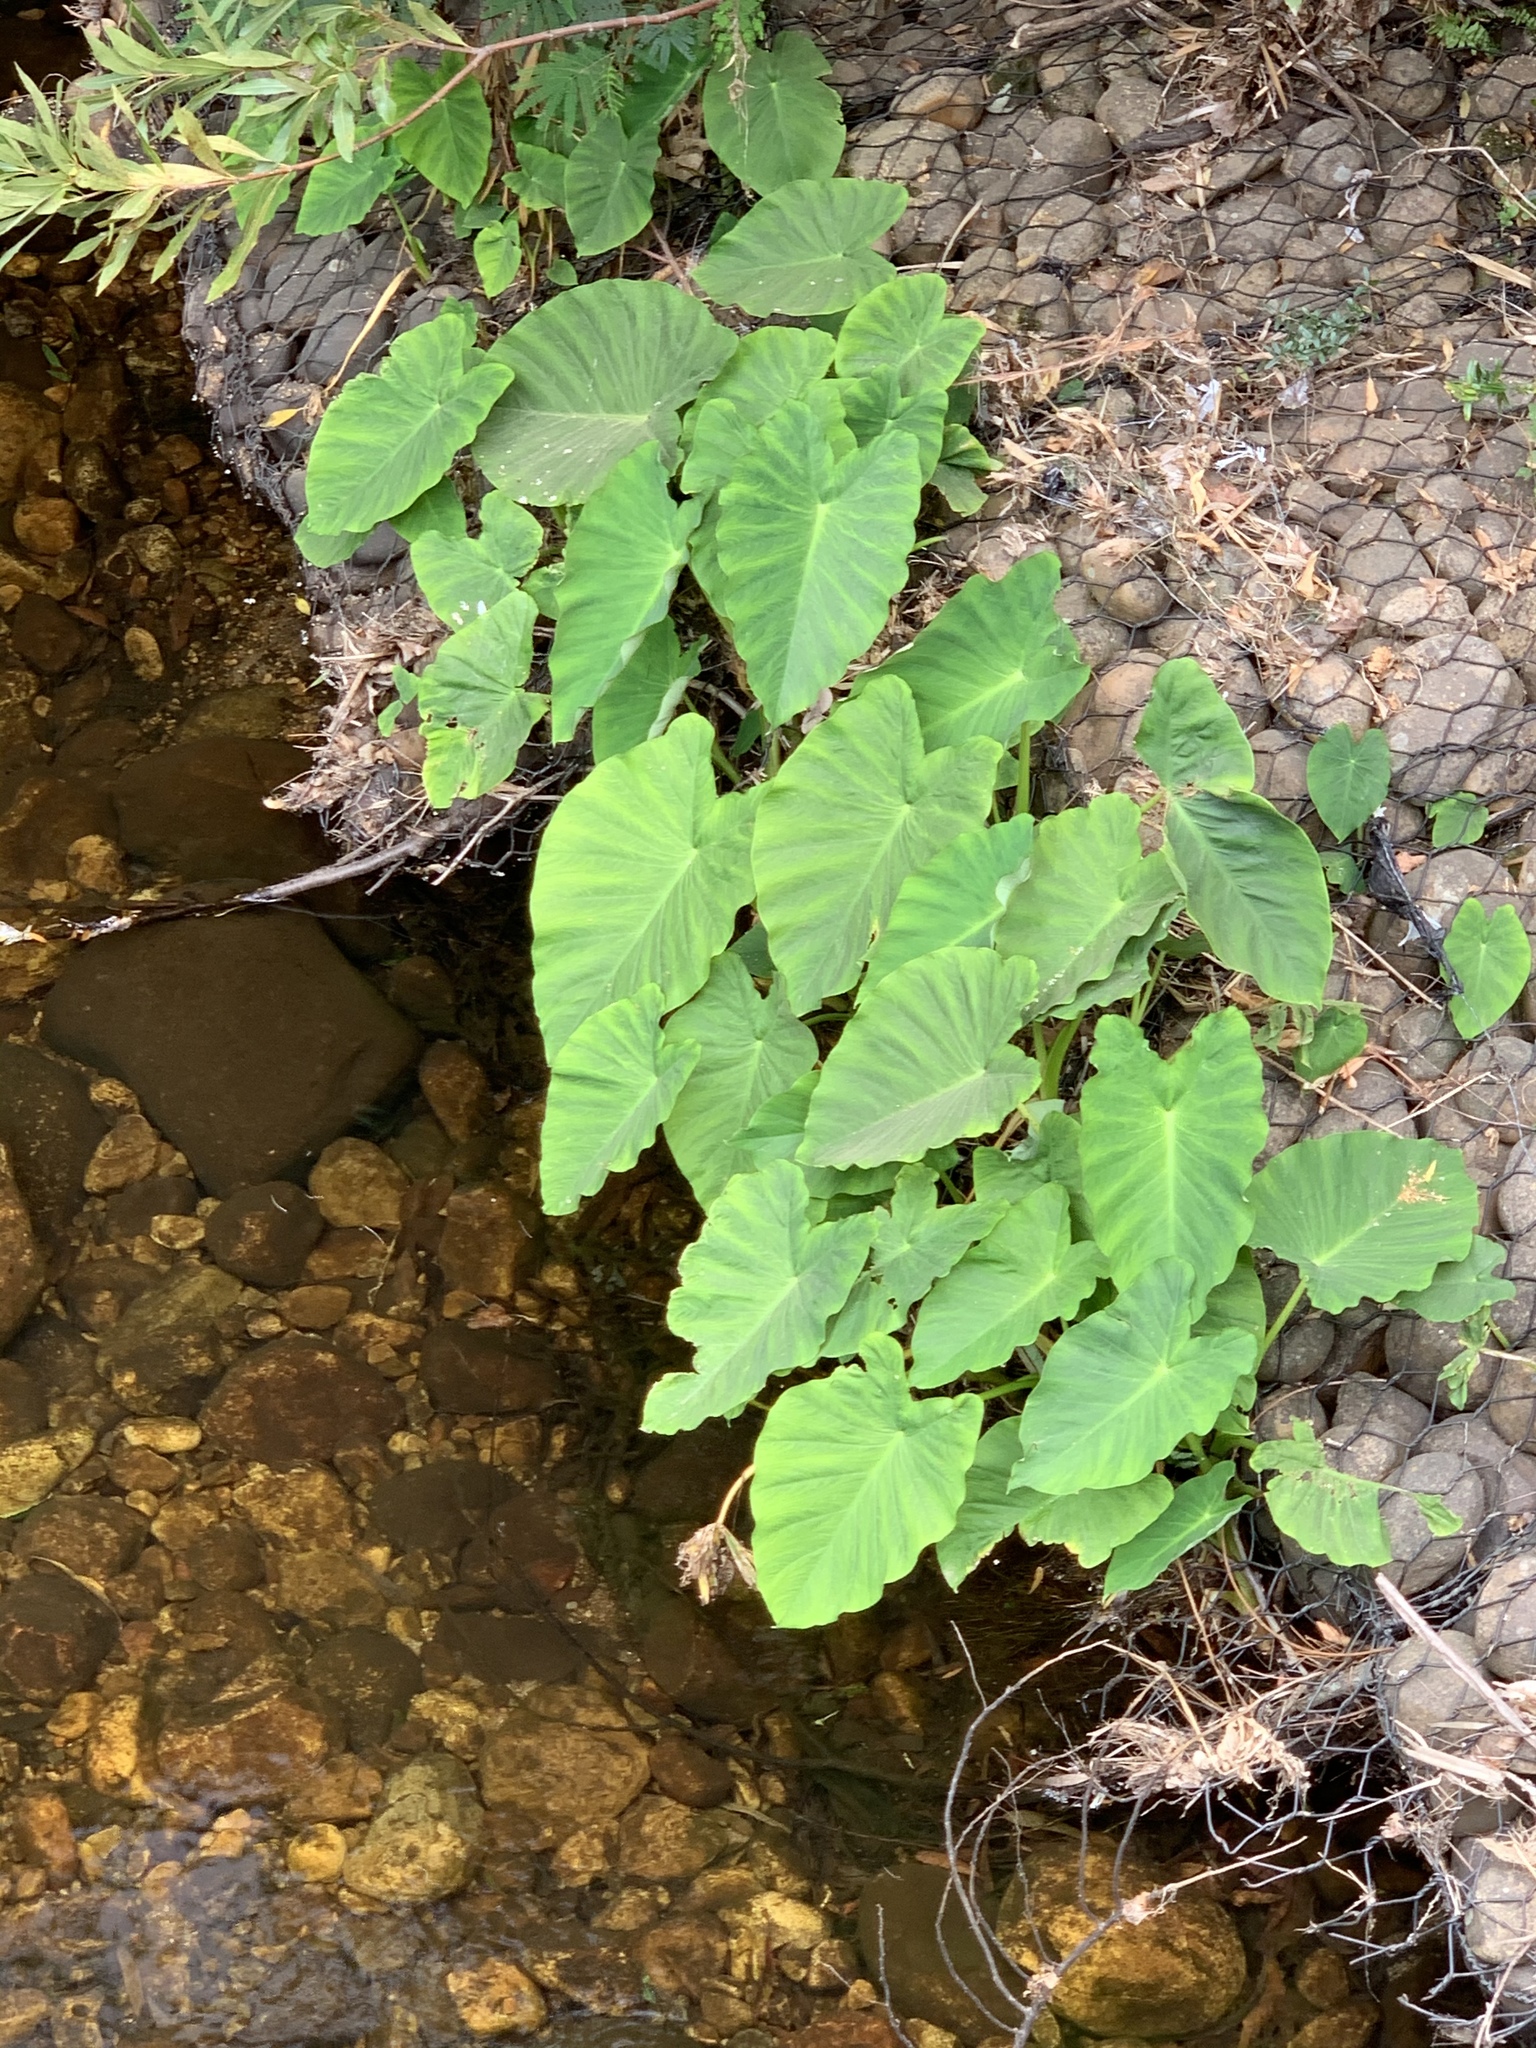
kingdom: Plantae
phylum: Tracheophyta
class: Liliopsida
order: Alismatales
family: Araceae
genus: Colocasia
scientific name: Colocasia esculenta
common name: Taro
